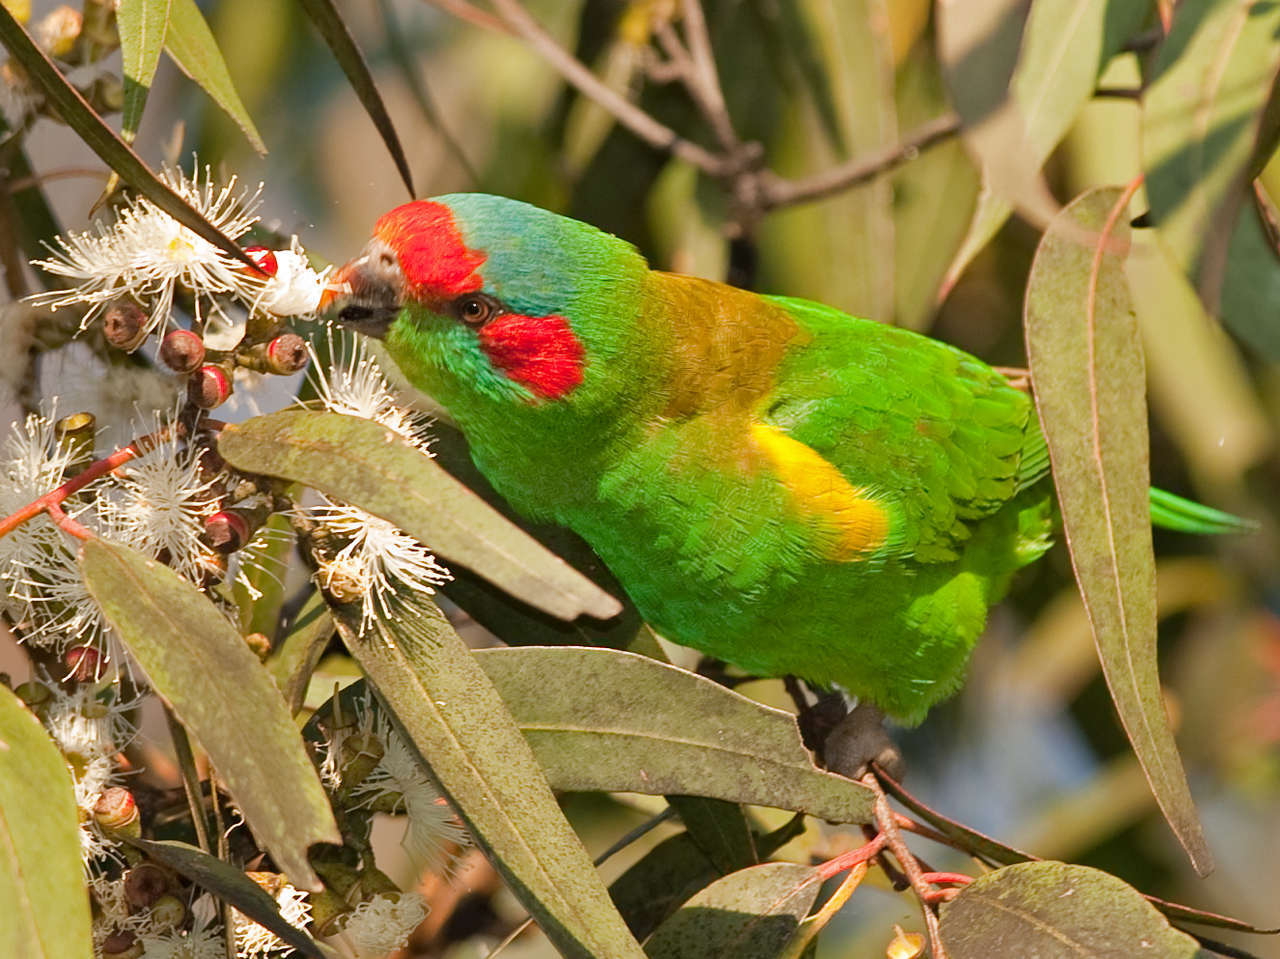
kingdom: Animalia
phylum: Chordata
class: Aves
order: Psittaciformes
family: Psittacidae
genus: Glossopsitta
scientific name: Glossopsitta concinna
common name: Musk lorikeet
